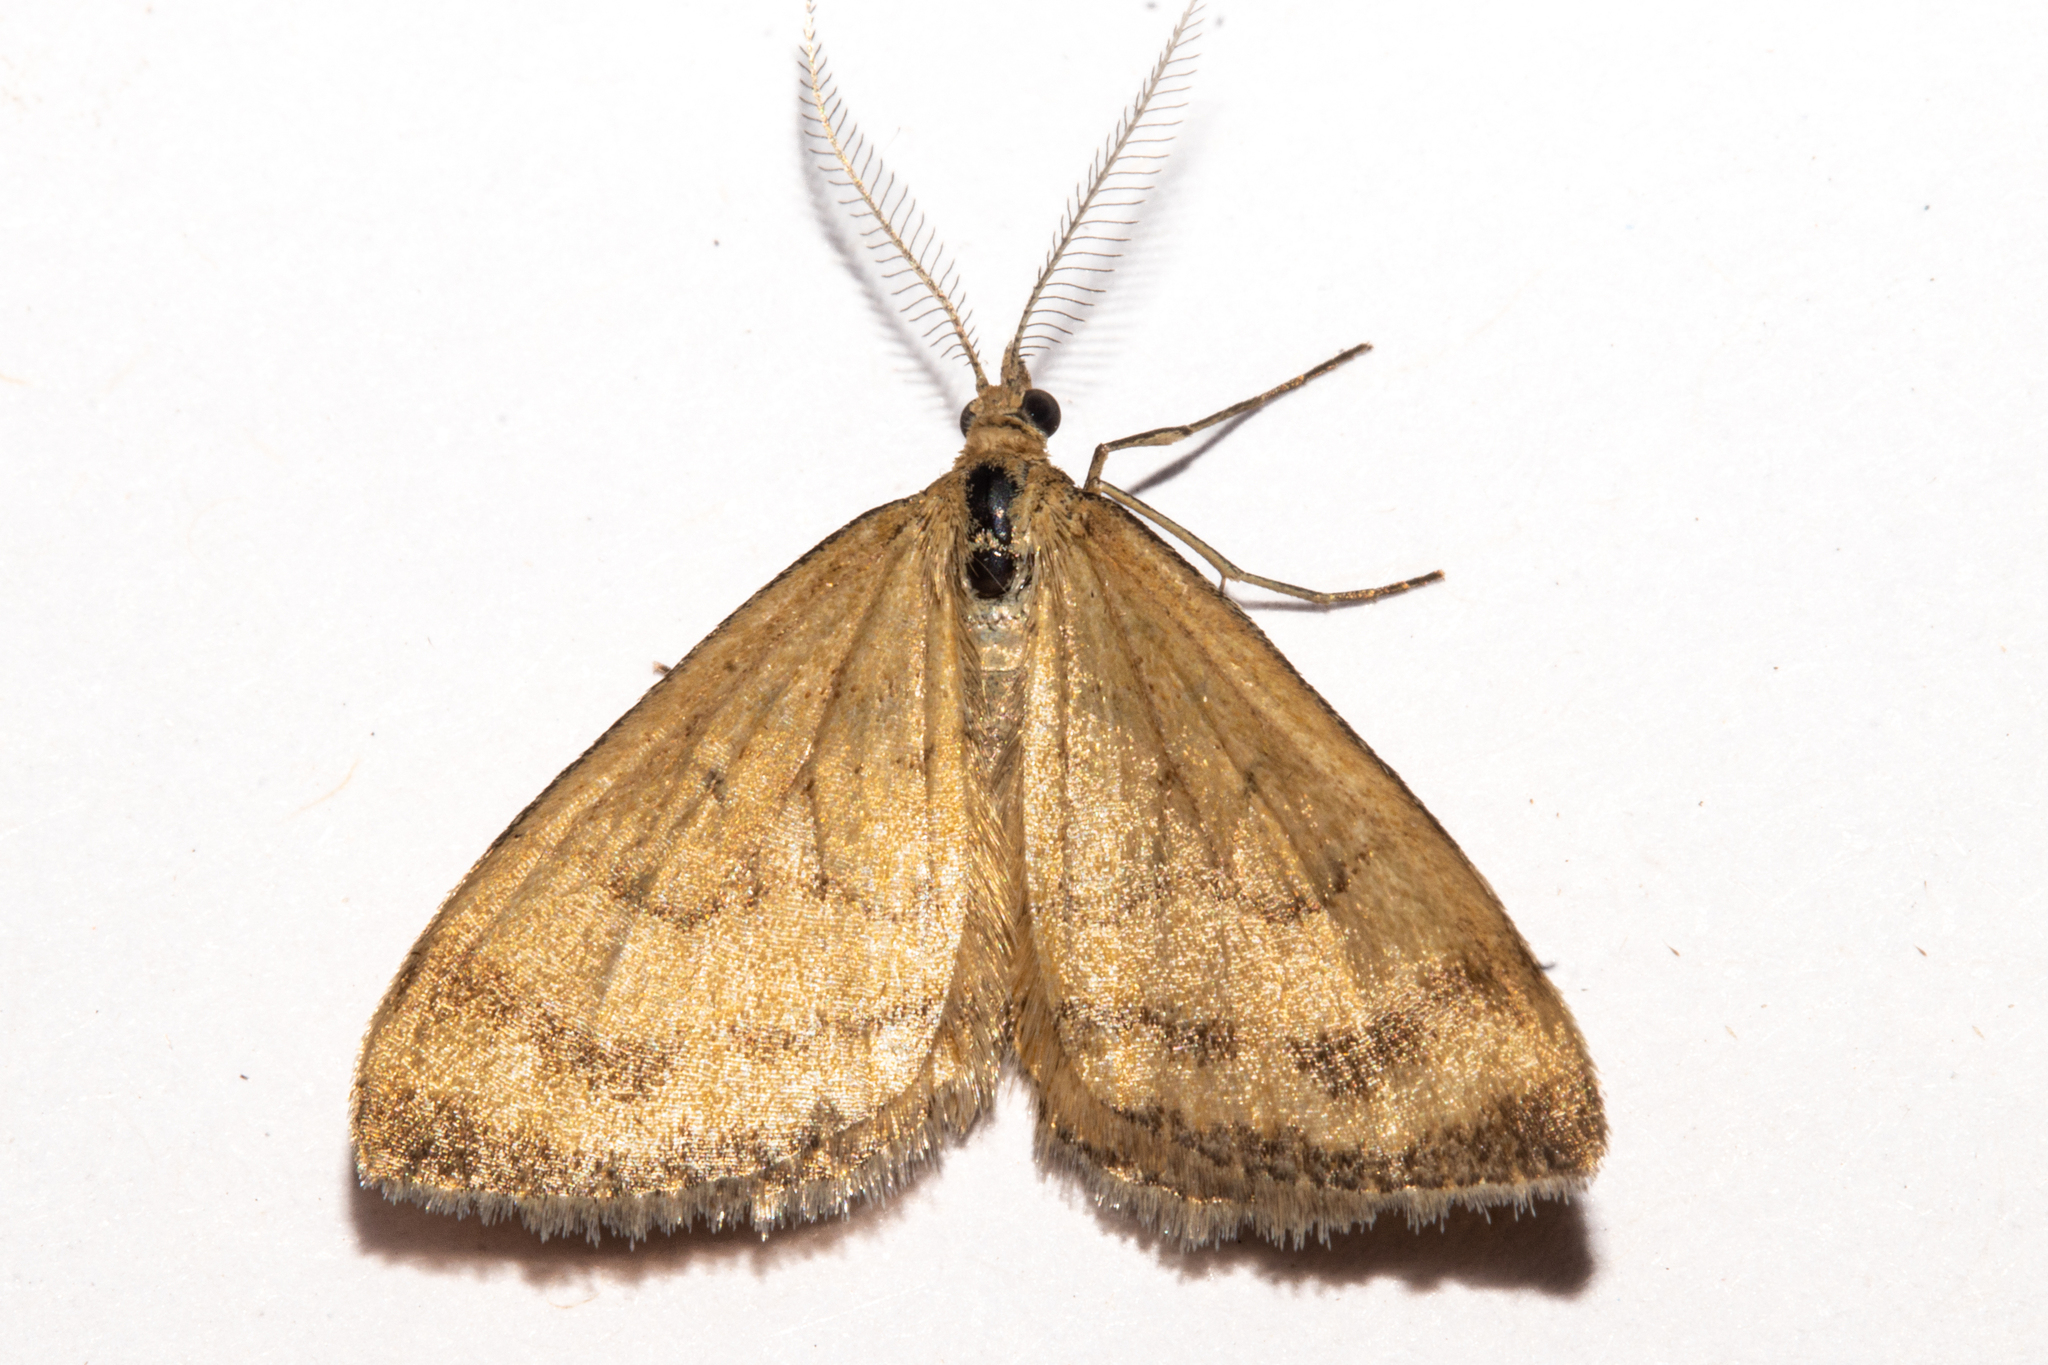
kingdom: Animalia
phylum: Arthropoda
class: Insecta
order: Lepidoptera
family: Geometridae
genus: Asaphodes
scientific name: Asaphodes abrogata
